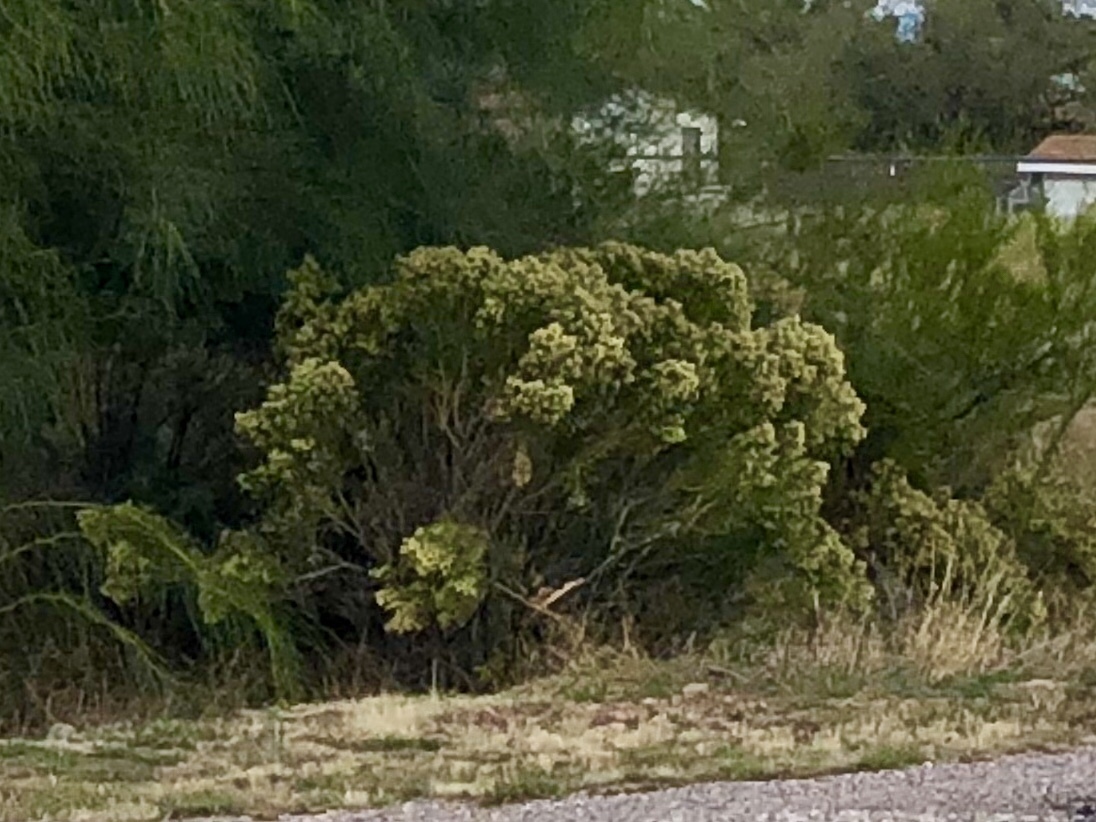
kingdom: Plantae
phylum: Tracheophyta
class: Magnoliopsida
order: Asterales
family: Asteraceae
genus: Baccharis
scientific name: Baccharis sarothroides
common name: Desert-broom
